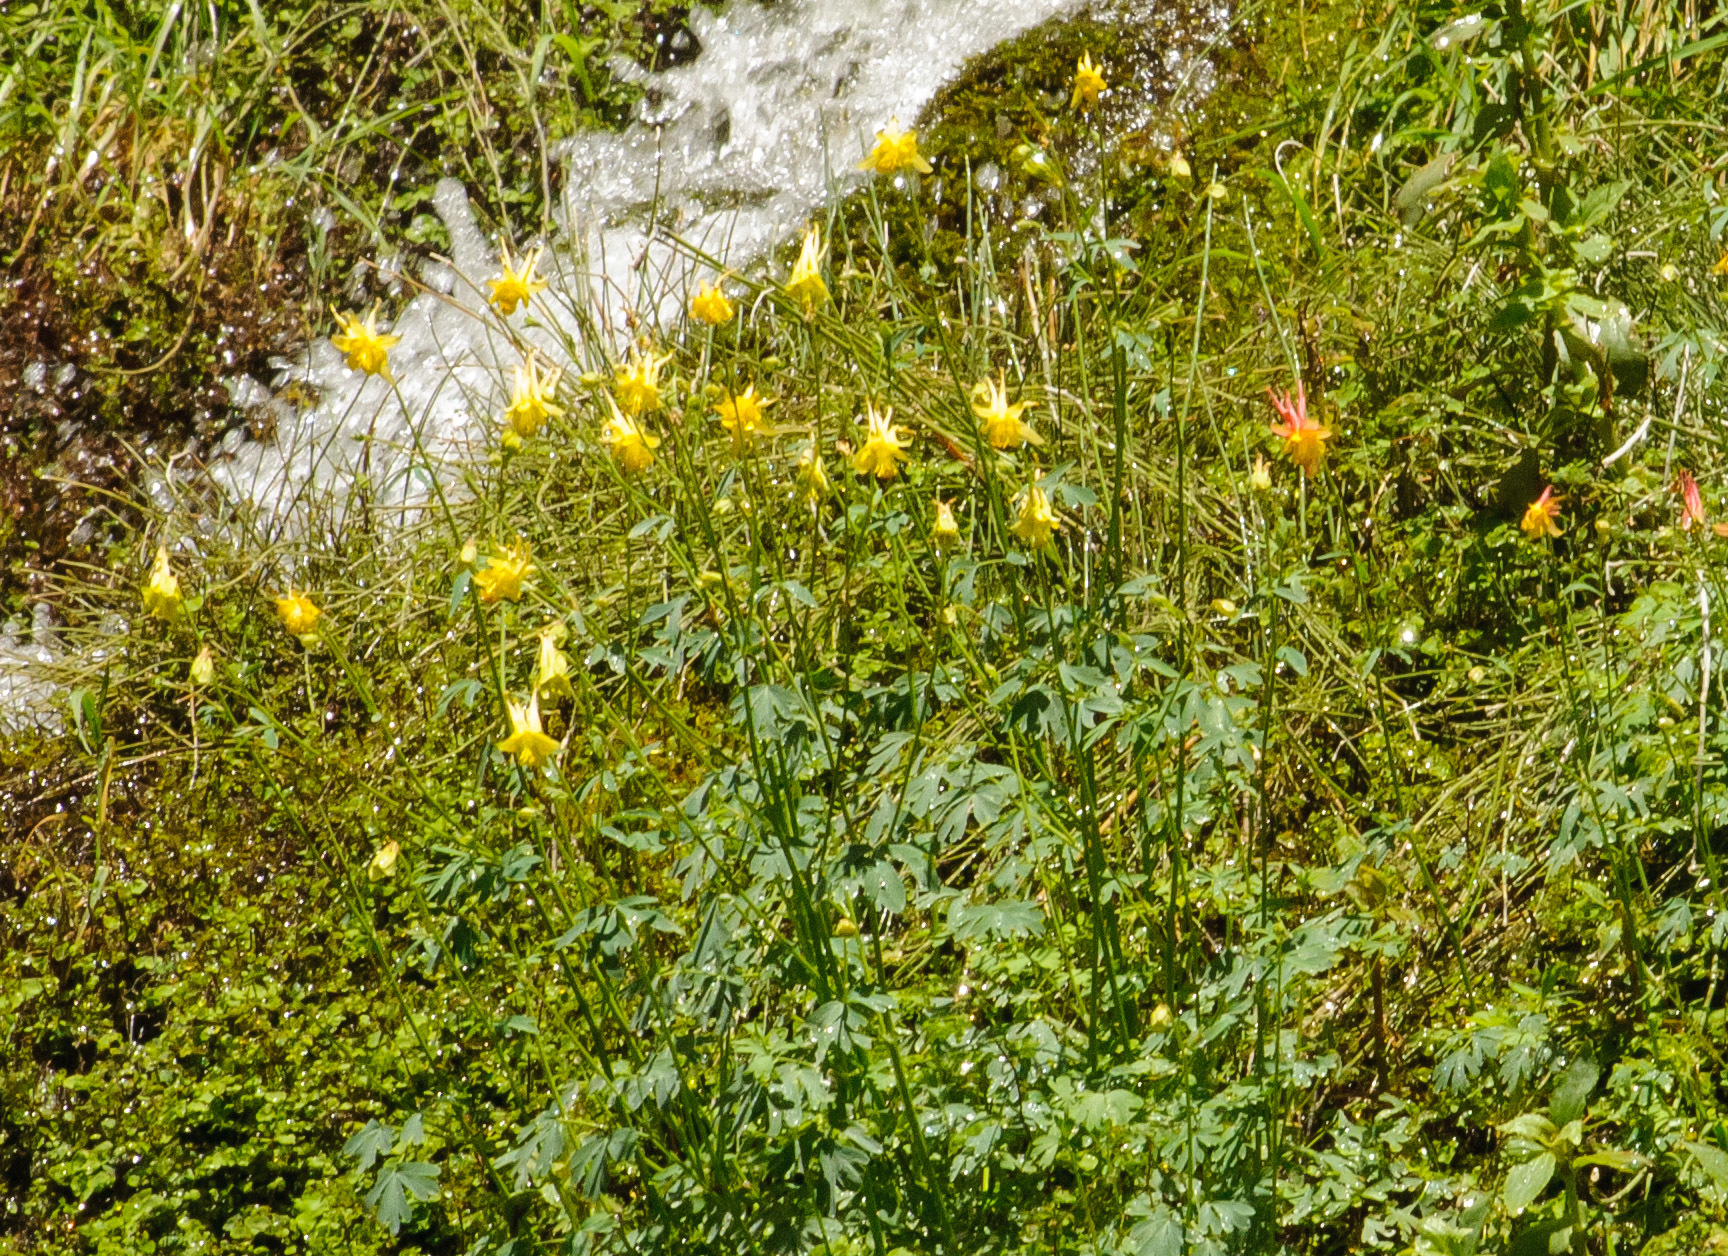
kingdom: Plantae
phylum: Tracheophyta
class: Magnoliopsida
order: Ranunculales
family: Ranunculaceae
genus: Aquilegia
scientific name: Aquilegia chrysantha
